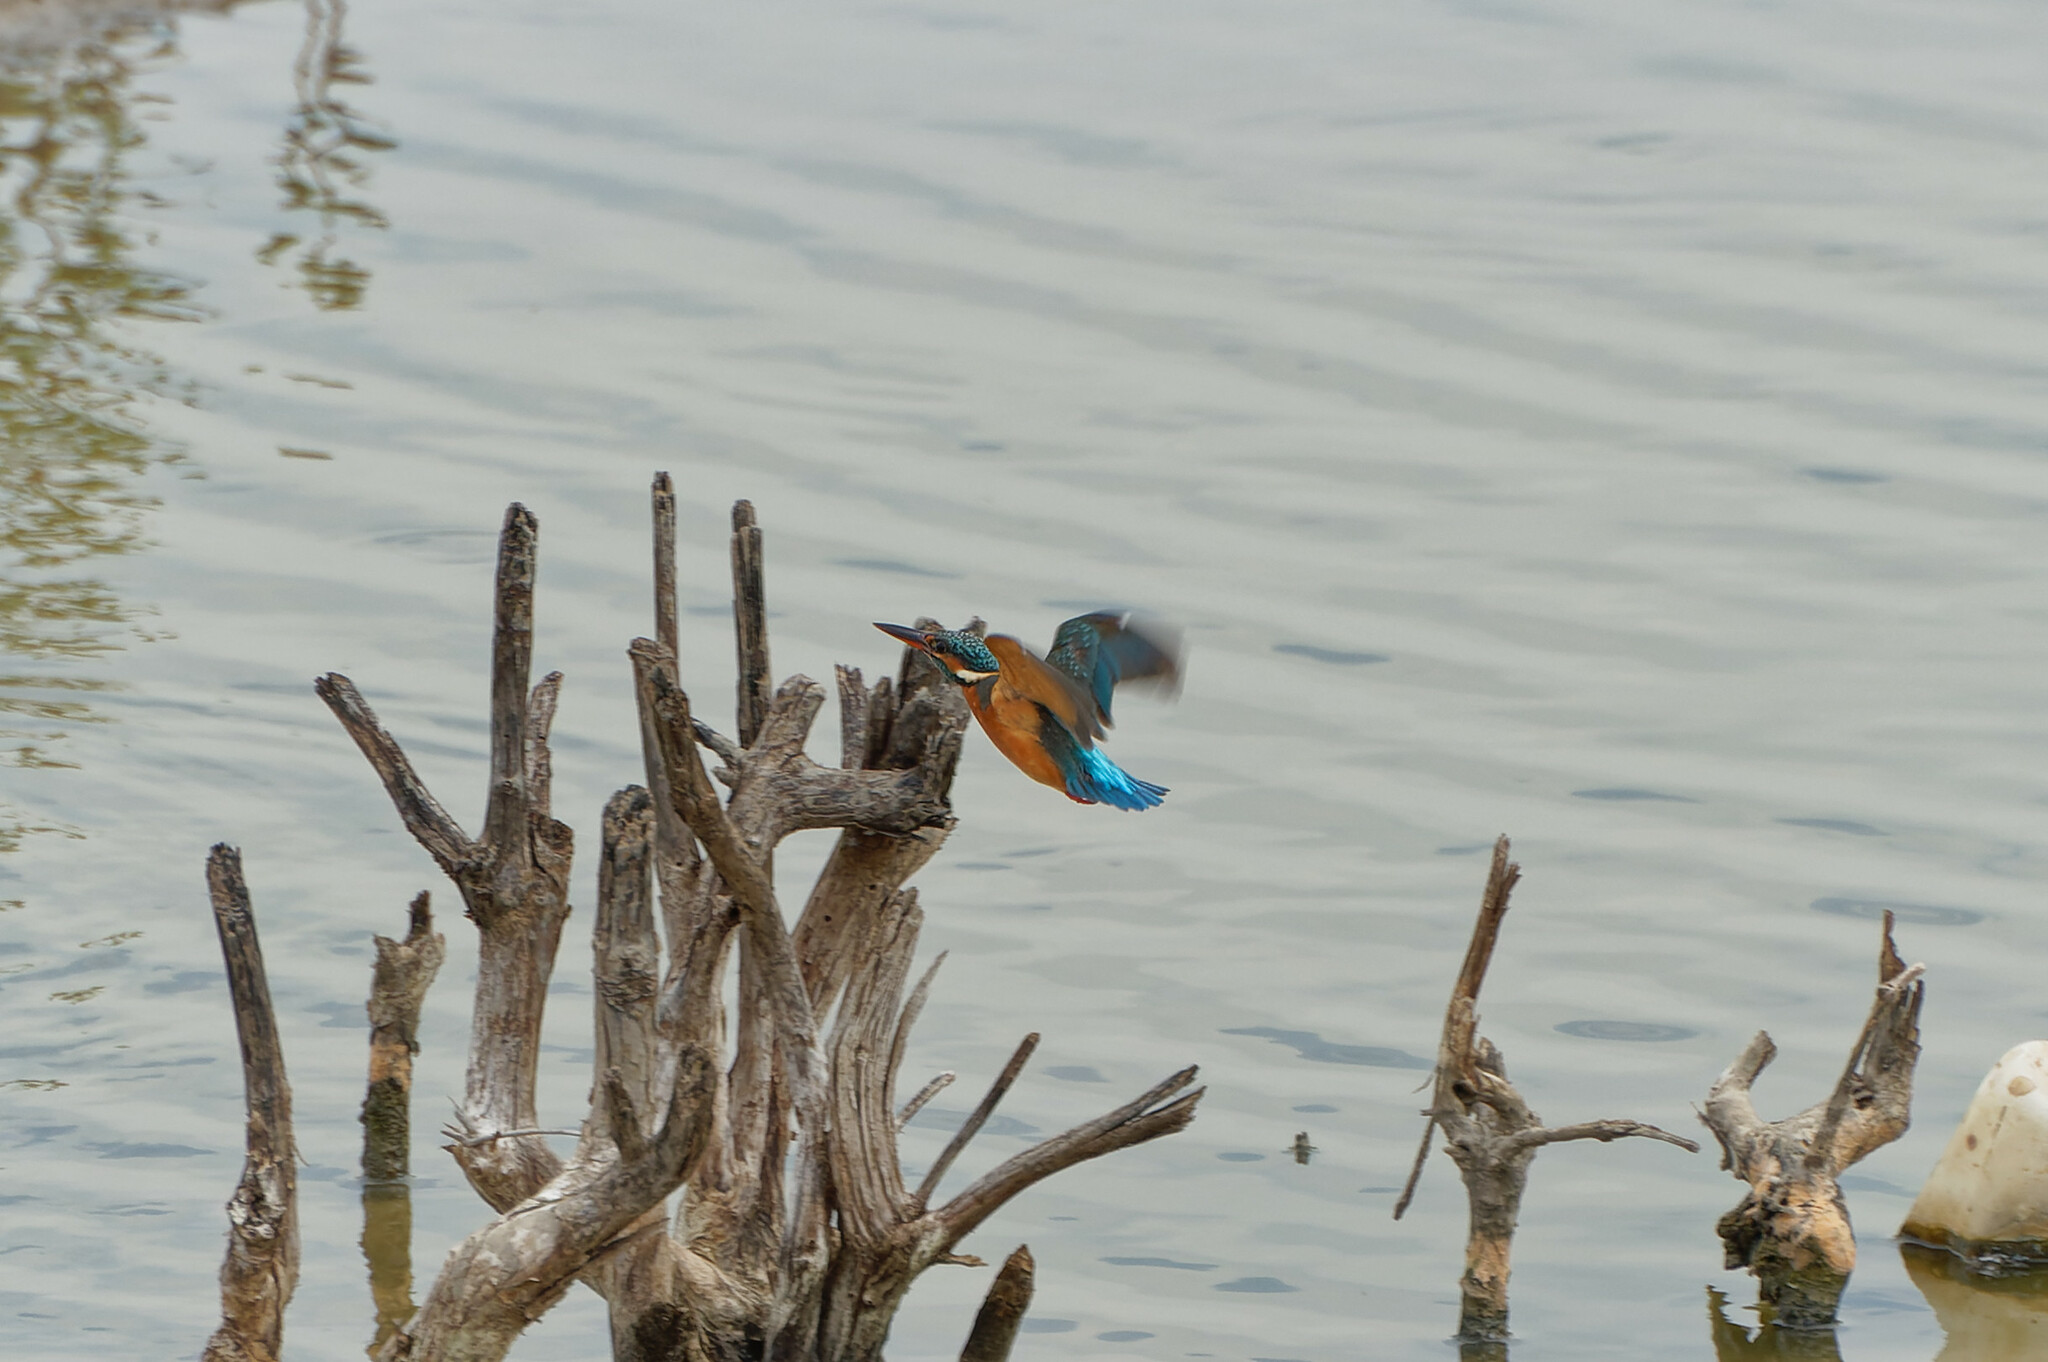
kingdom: Animalia
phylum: Chordata
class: Aves
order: Coraciiformes
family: Alcedinidae
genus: Alcedo
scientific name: Alcedo atthis
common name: Common kingfisher
